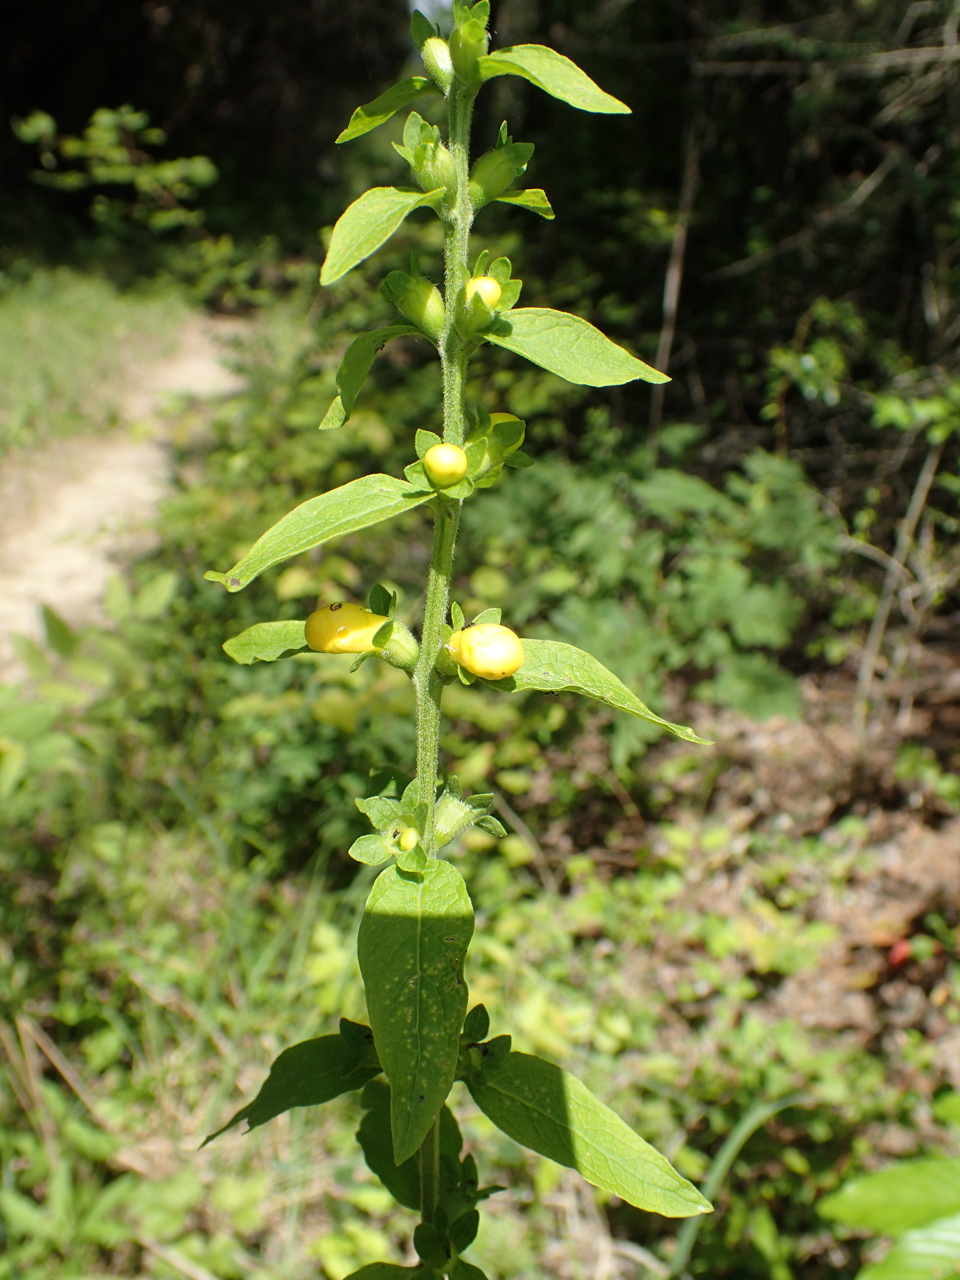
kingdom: Plantae
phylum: Tracheophyta
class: Magnoliopsida
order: Lamiales
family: Orobanchaceae
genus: Dasistoma
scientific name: Dasistoma macrophyllum
